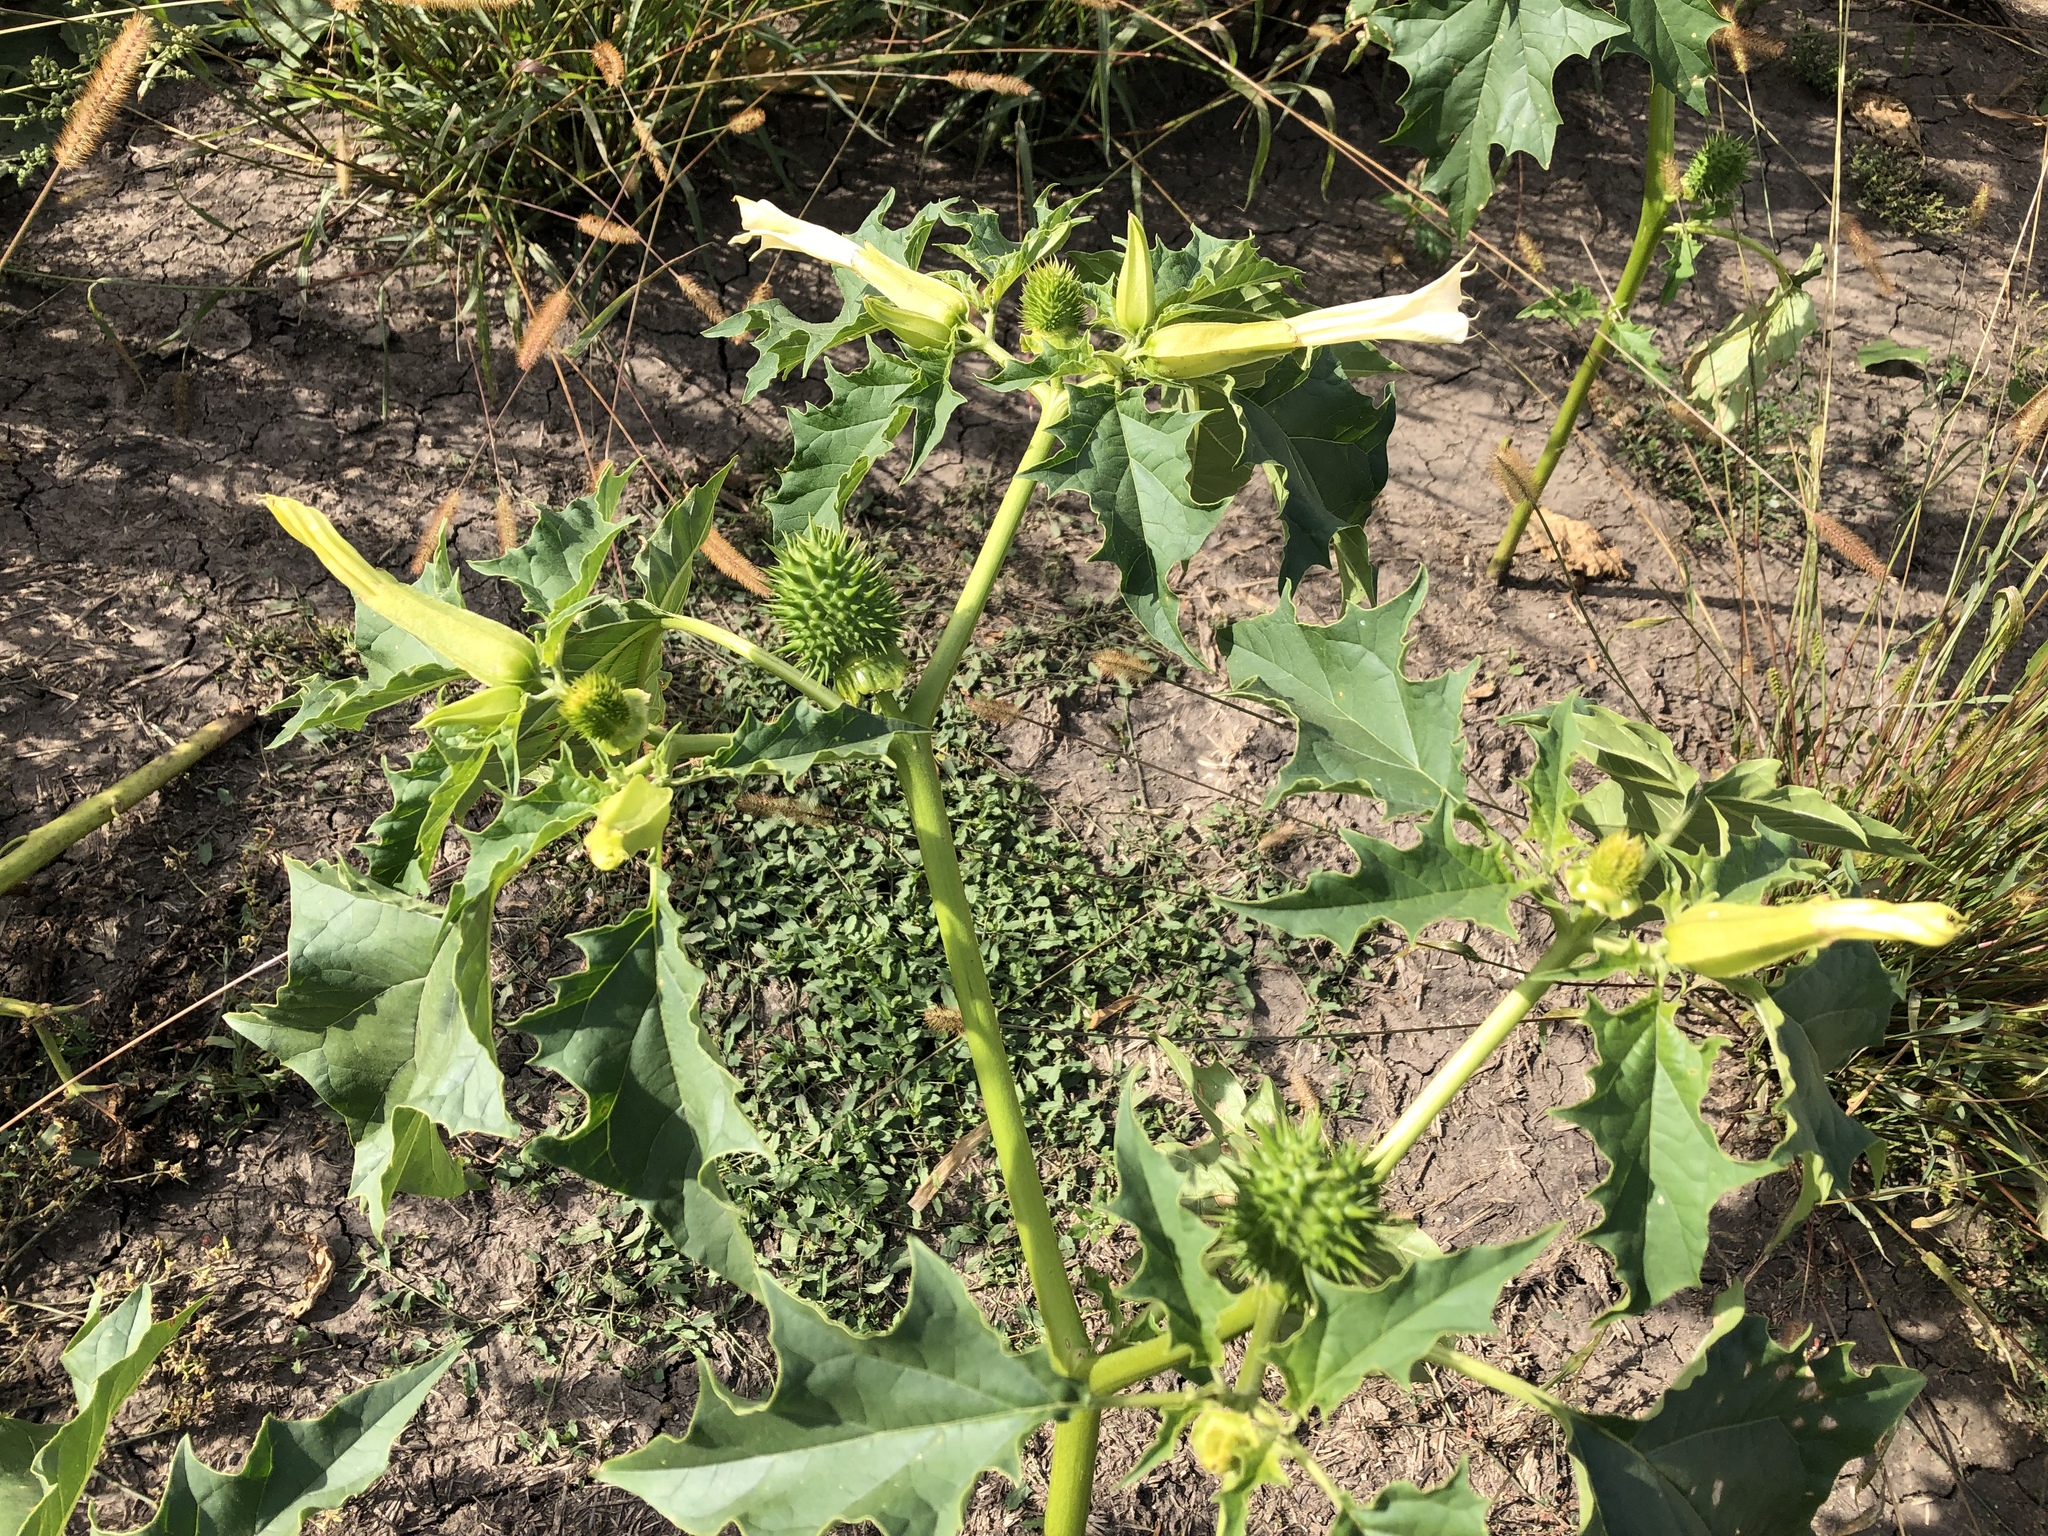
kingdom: Plantae
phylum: Tracheophyta
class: Magnoliopsida
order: Solanales
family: Solanaceae
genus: Datura
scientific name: Datura stramonium
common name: Thorn-apple
